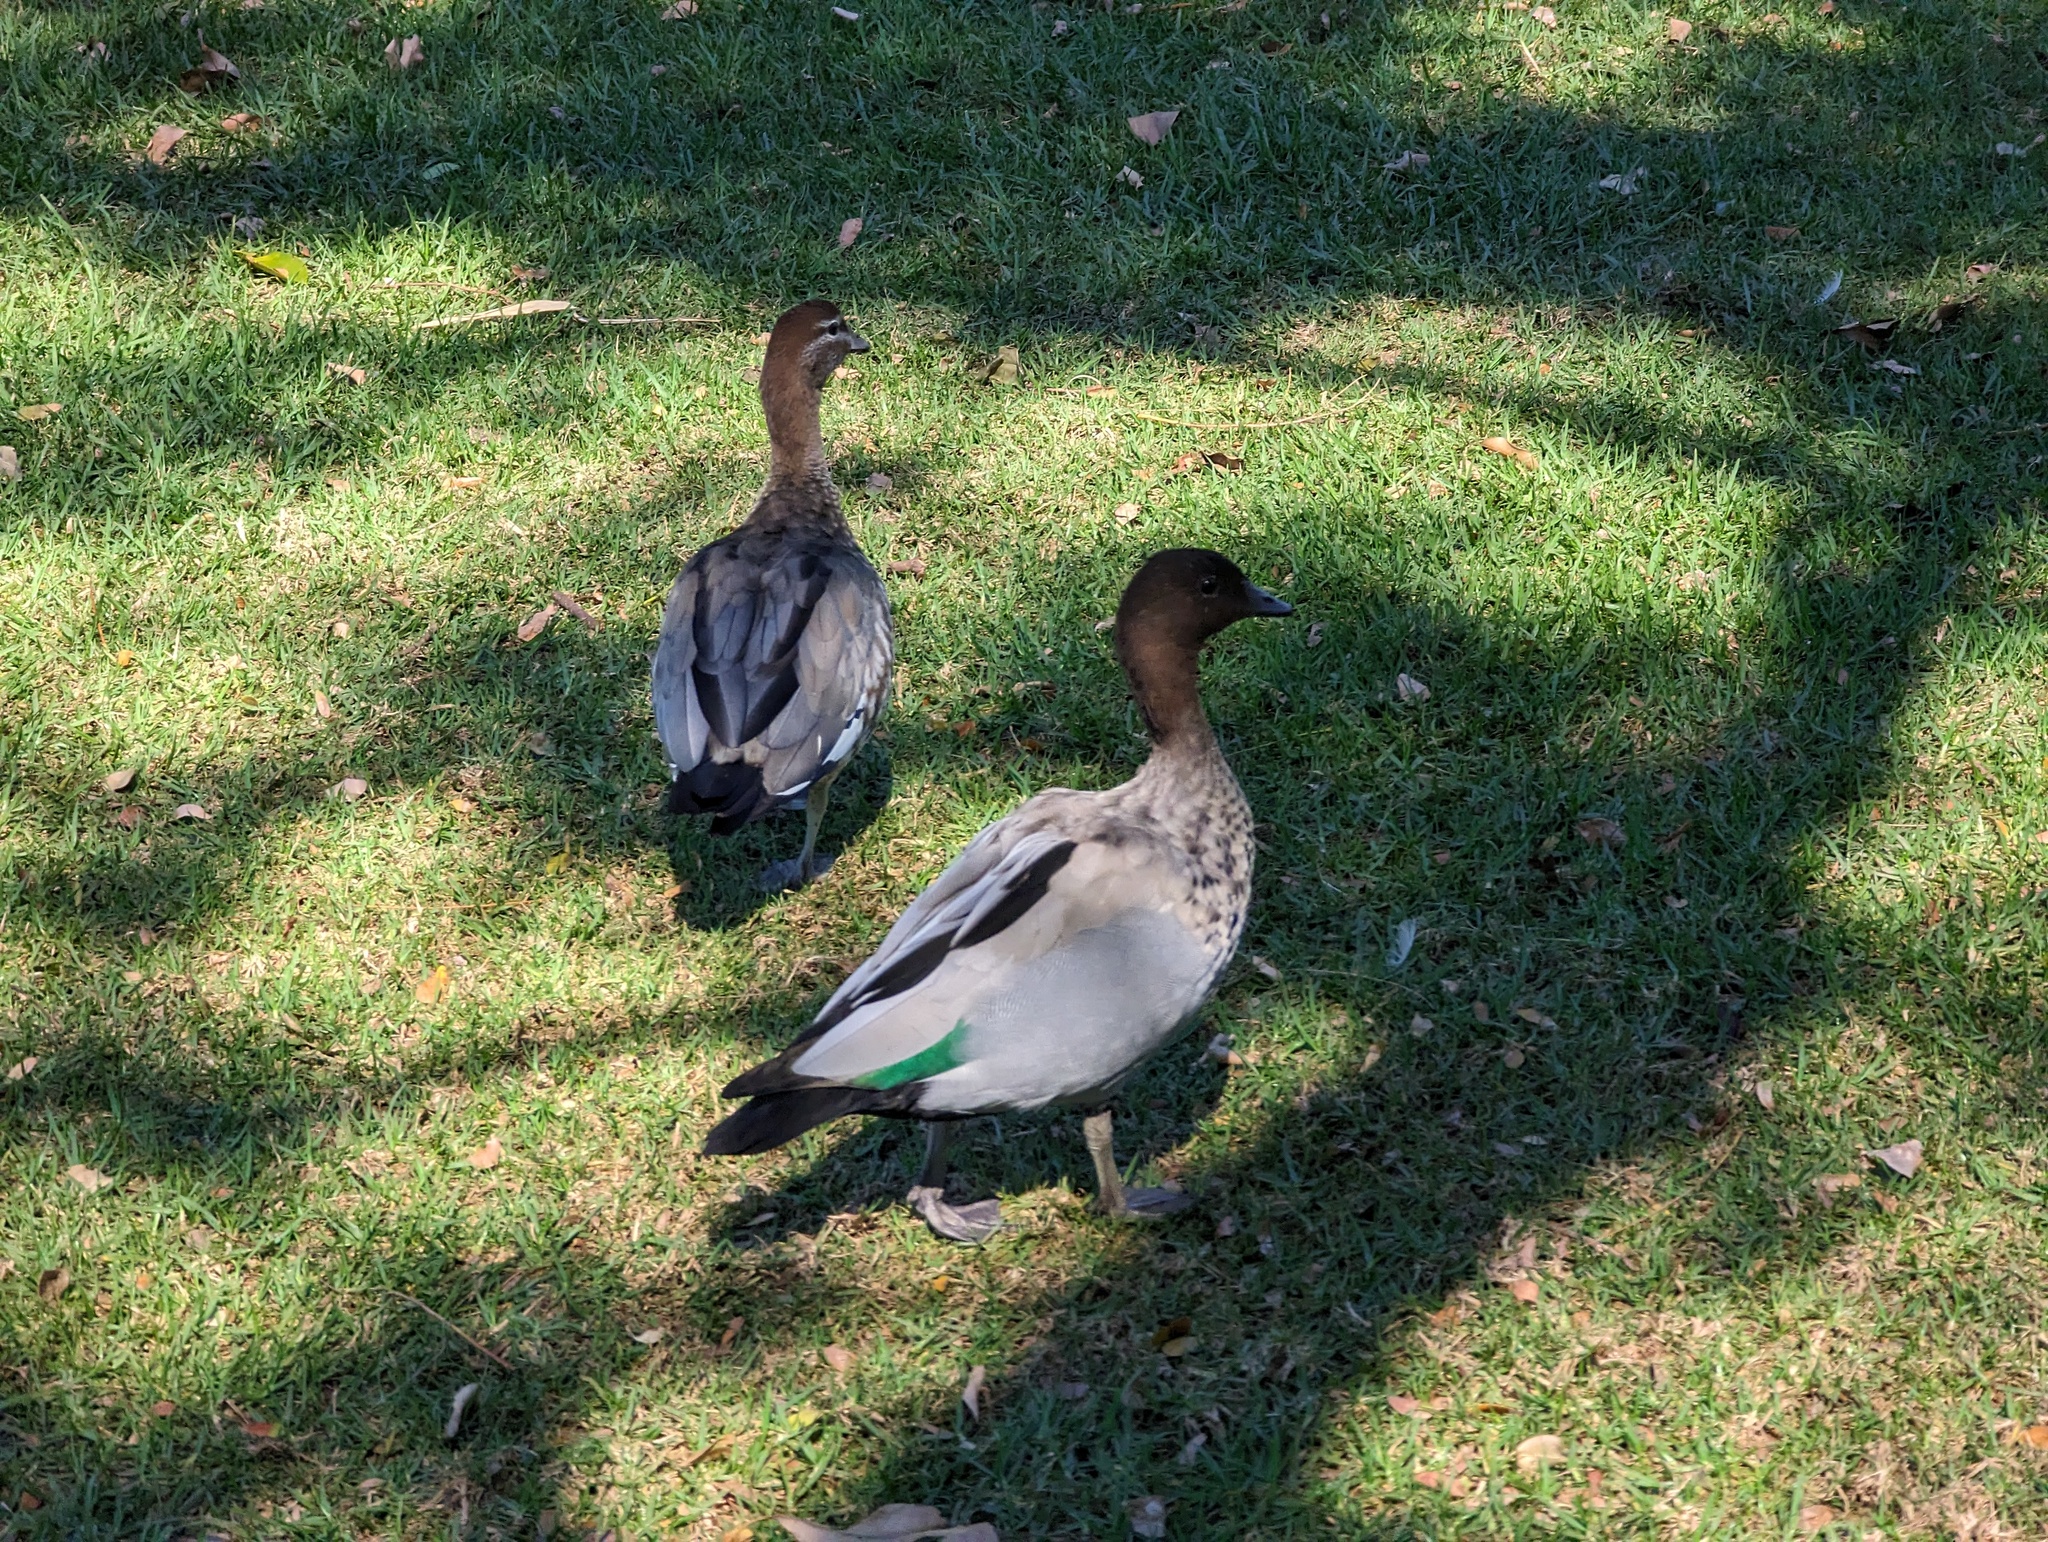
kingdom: Animalia
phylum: Chordata
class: Aves
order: Anseriformes
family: Anatidae
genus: Chenonetta
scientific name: Chenonetta jubata
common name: Maned duck
